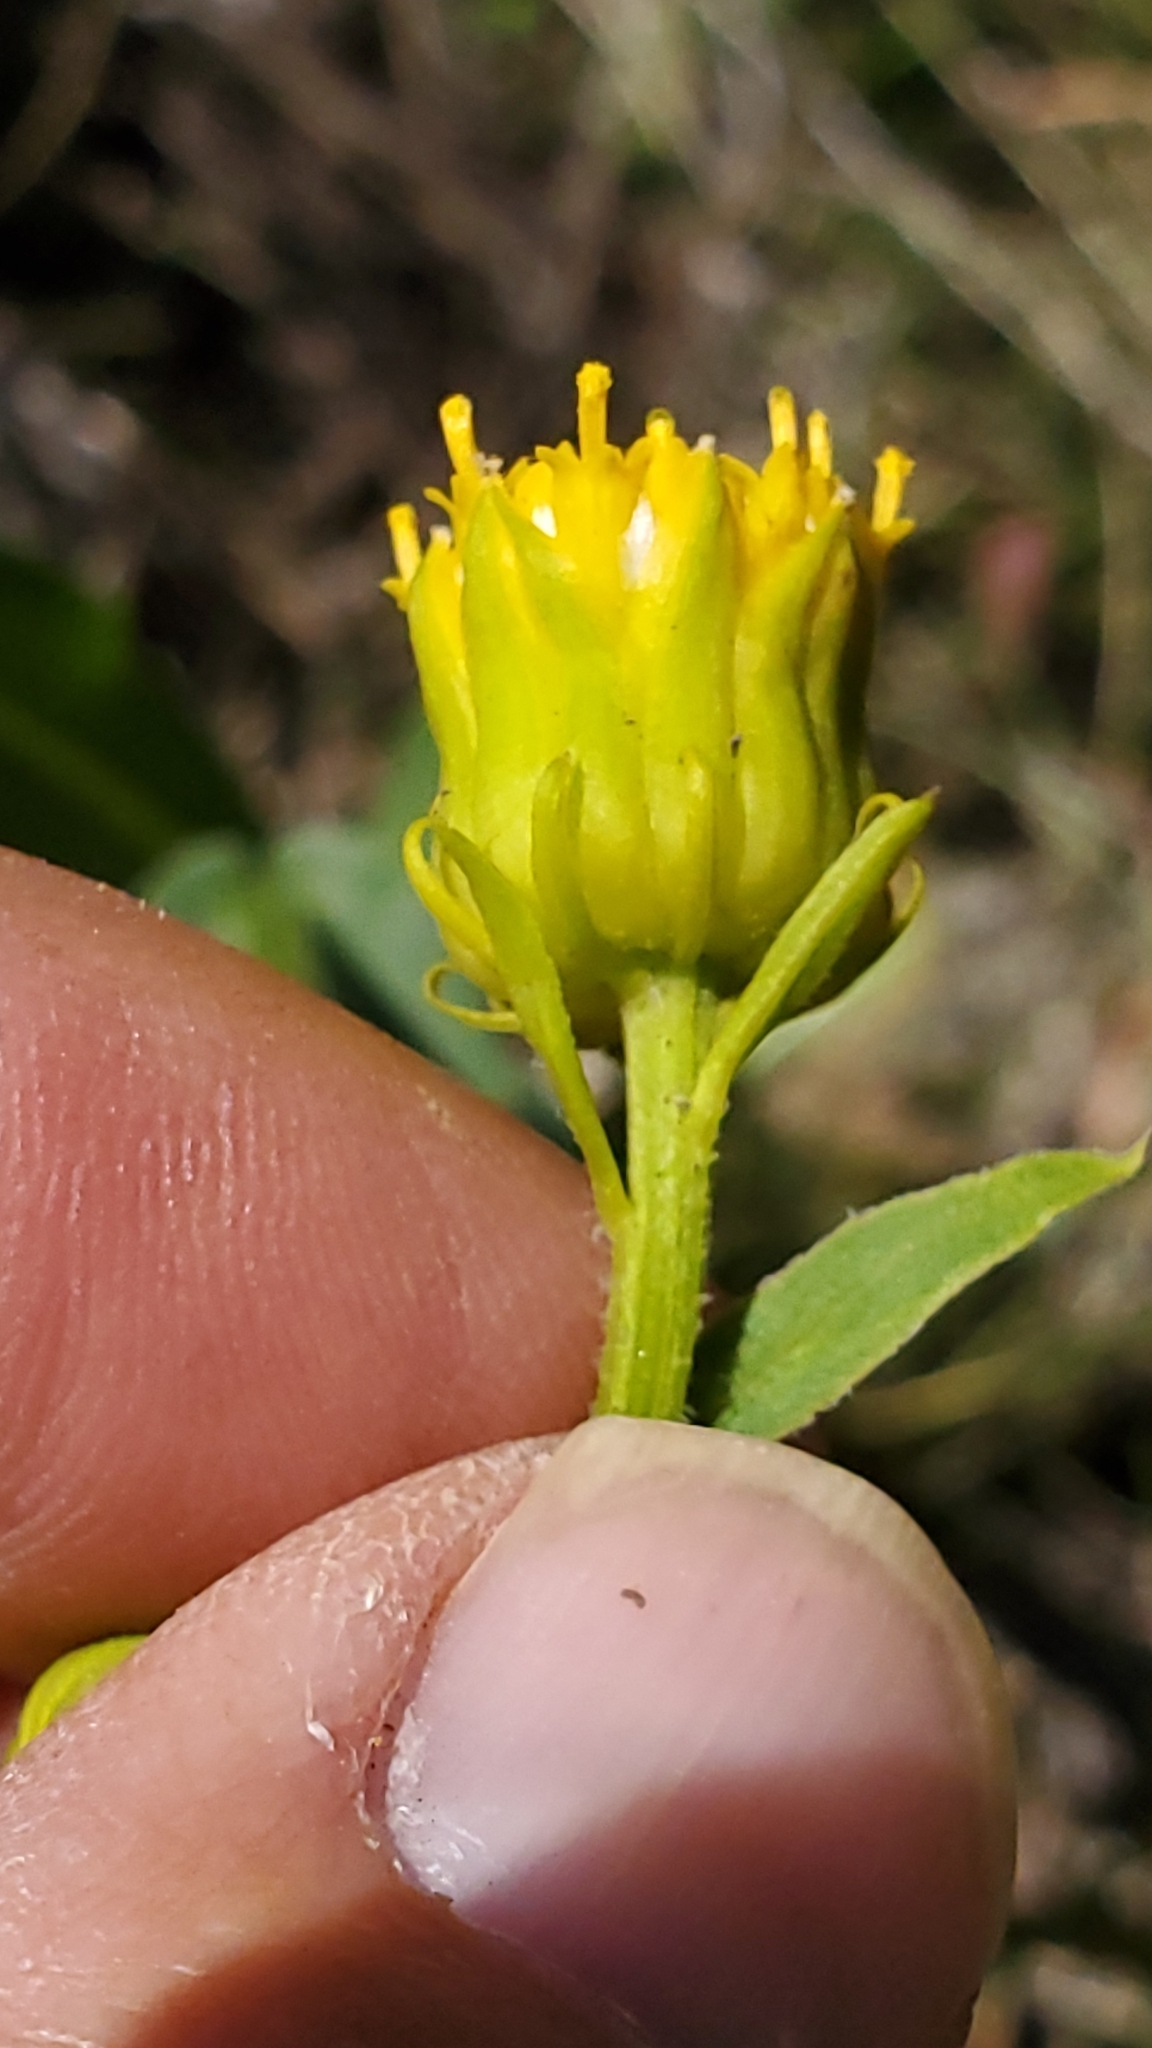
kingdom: Plantae
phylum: Tracheophyta
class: Magnoliopsida
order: Asterales
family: Asteraceae
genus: Senecio
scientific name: Senecio bigelovii
